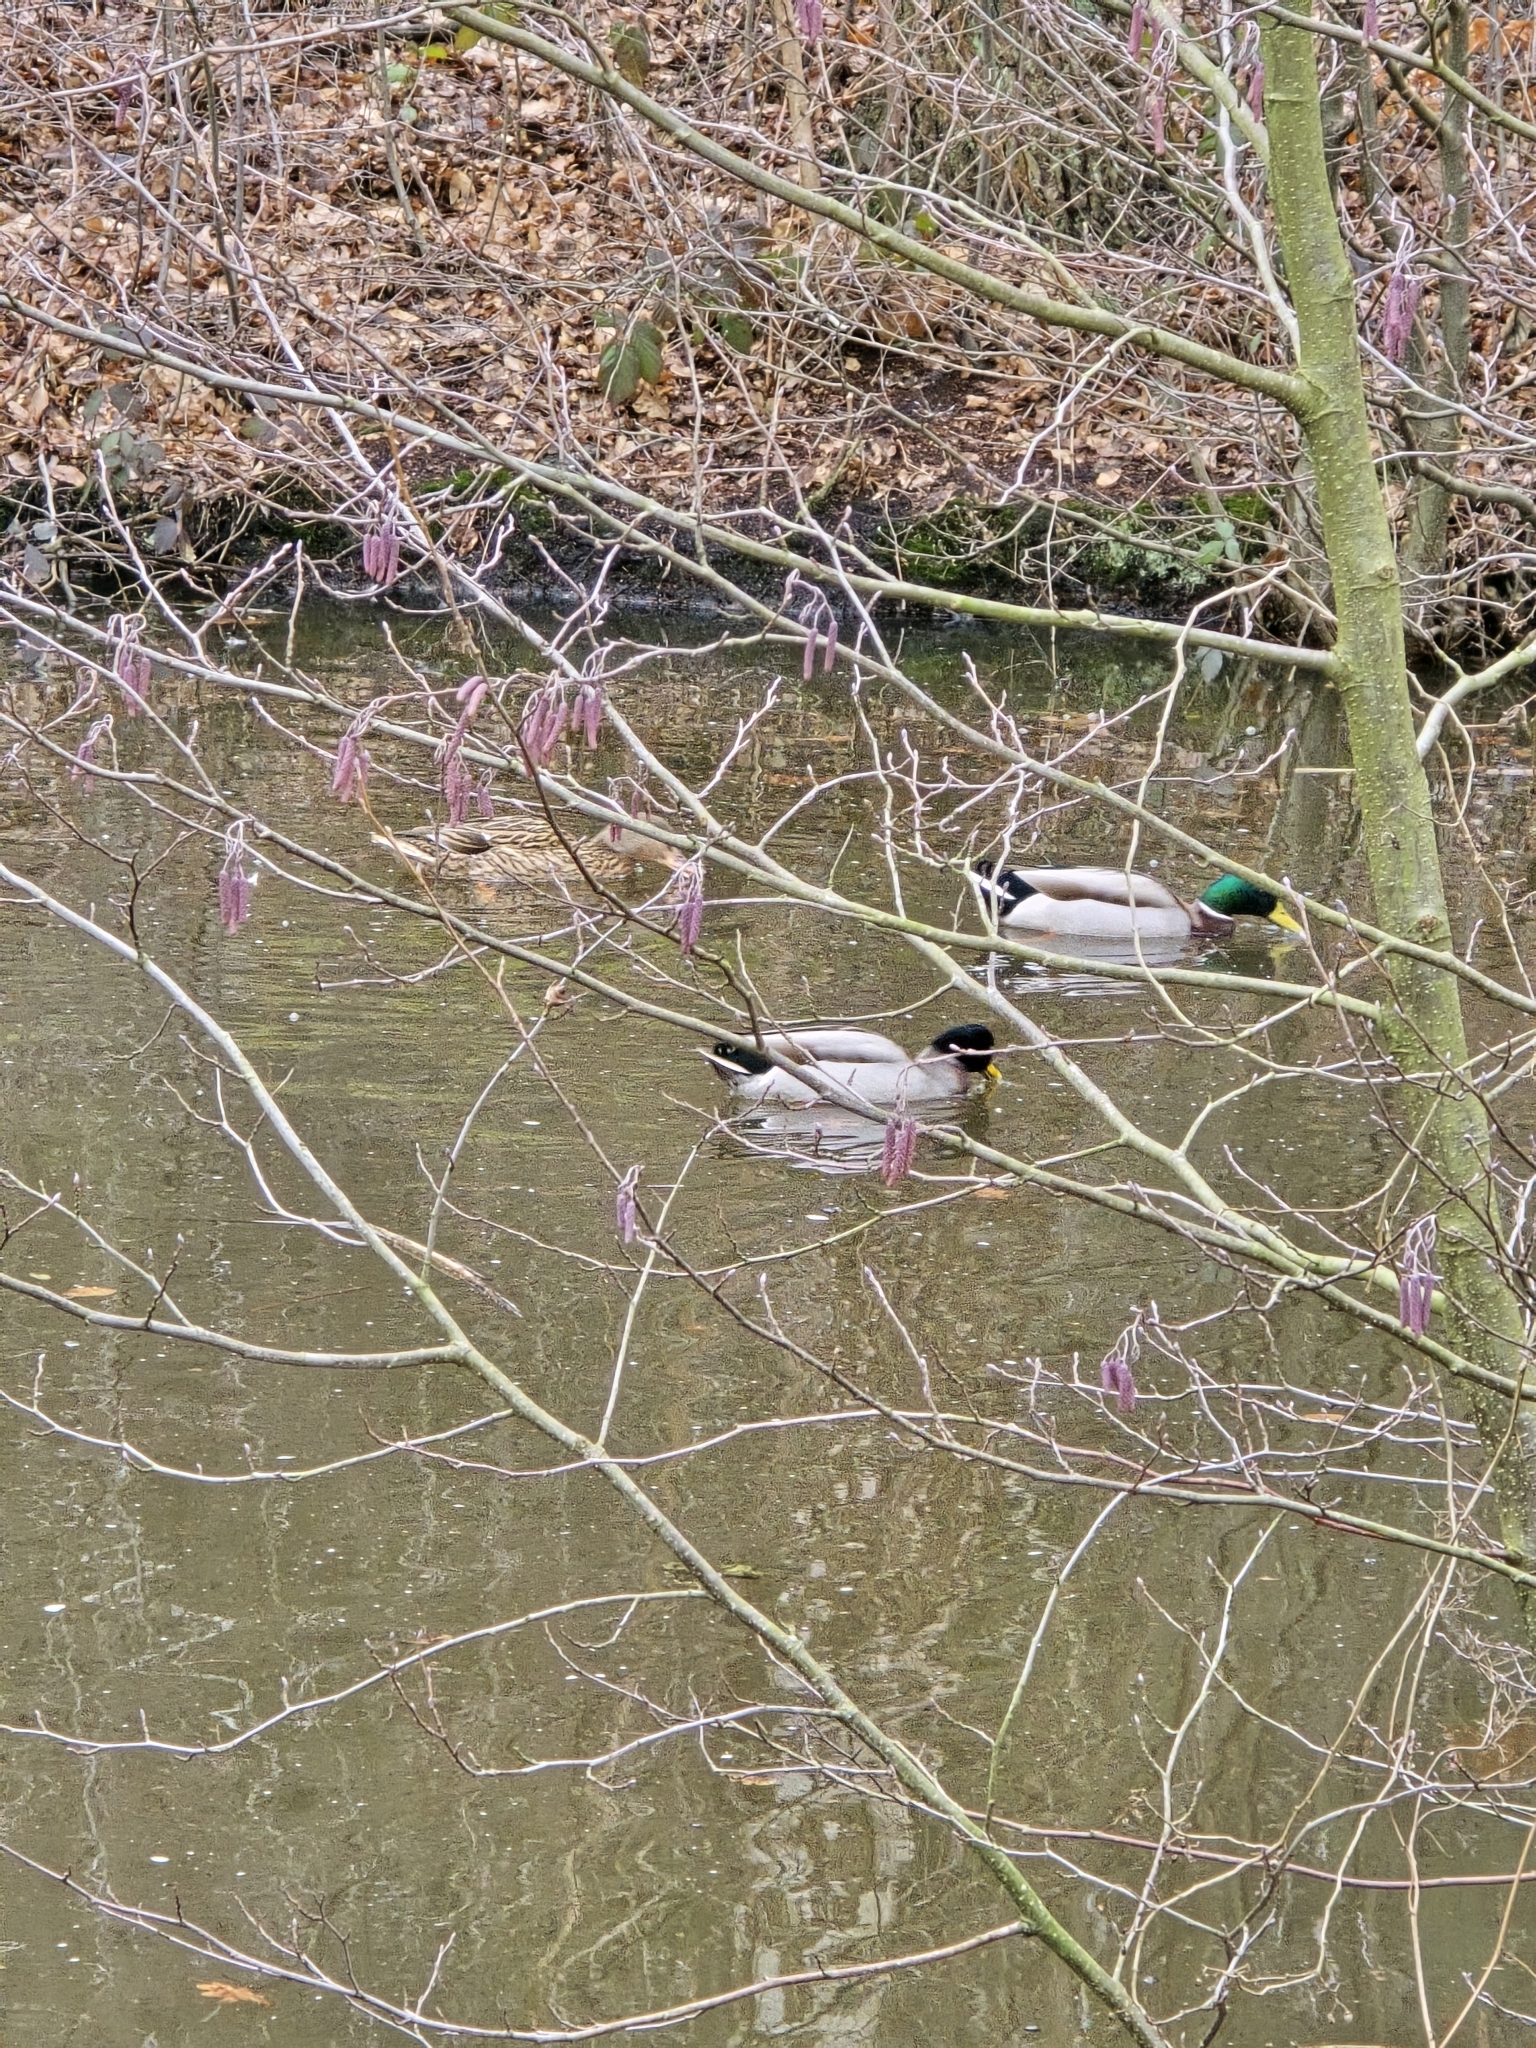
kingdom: Animalia
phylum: Chordata
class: Aves
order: Anseriformes
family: Anatidae
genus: Anas
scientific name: Anas platyrhynchos
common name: Mallard
